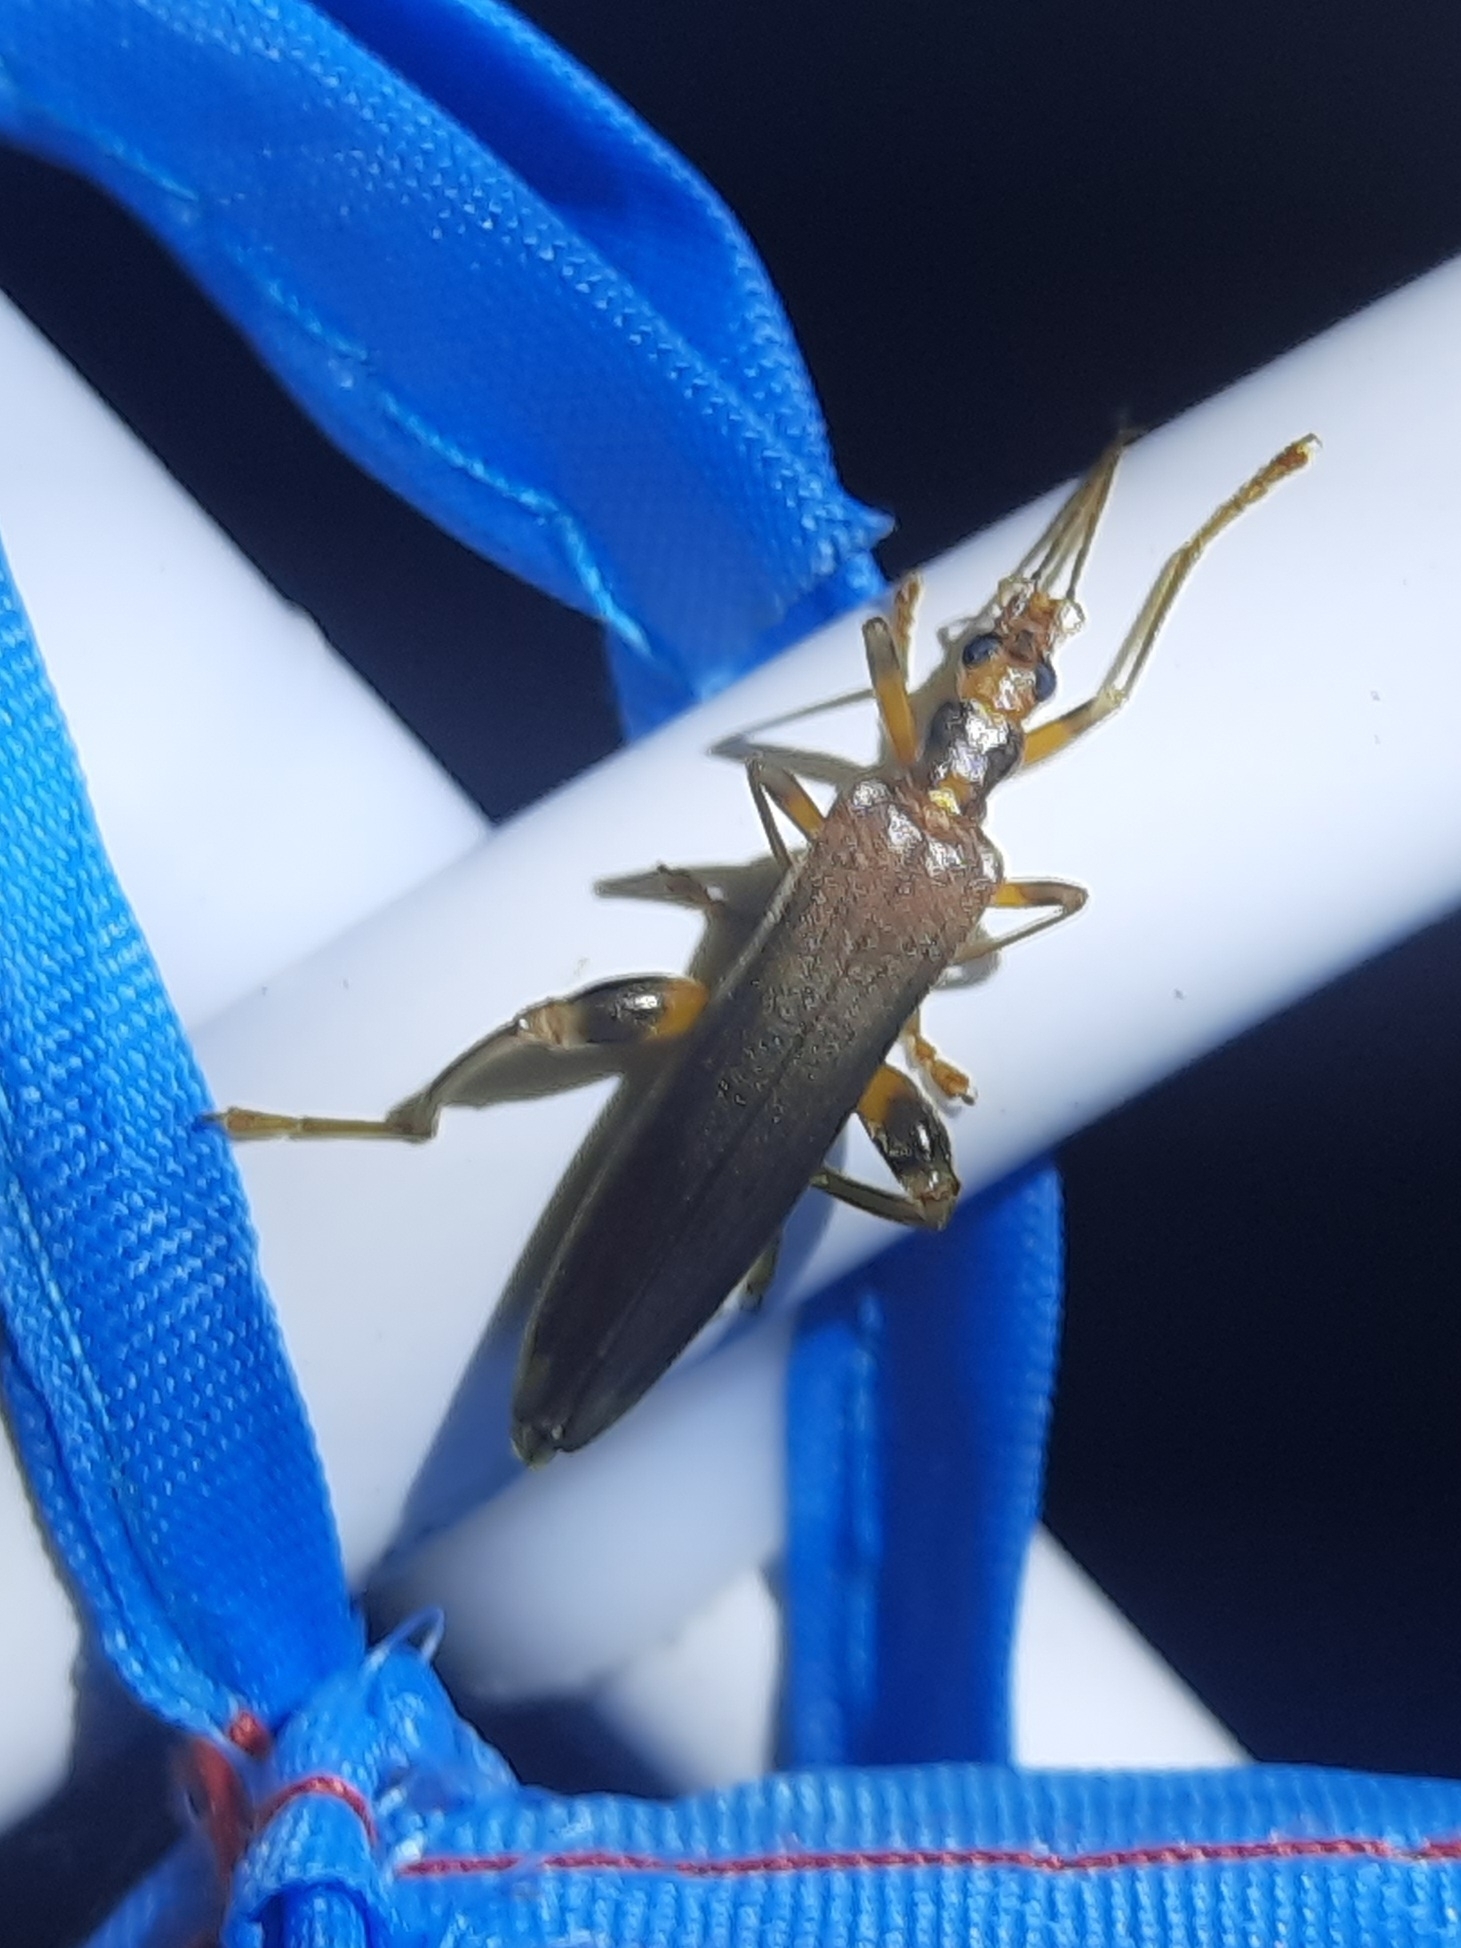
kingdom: Animalia
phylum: Arthropoda
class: Insecta
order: Coleoptera
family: Oedemeridae
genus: Oedemera
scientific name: Oedemera femoralis
